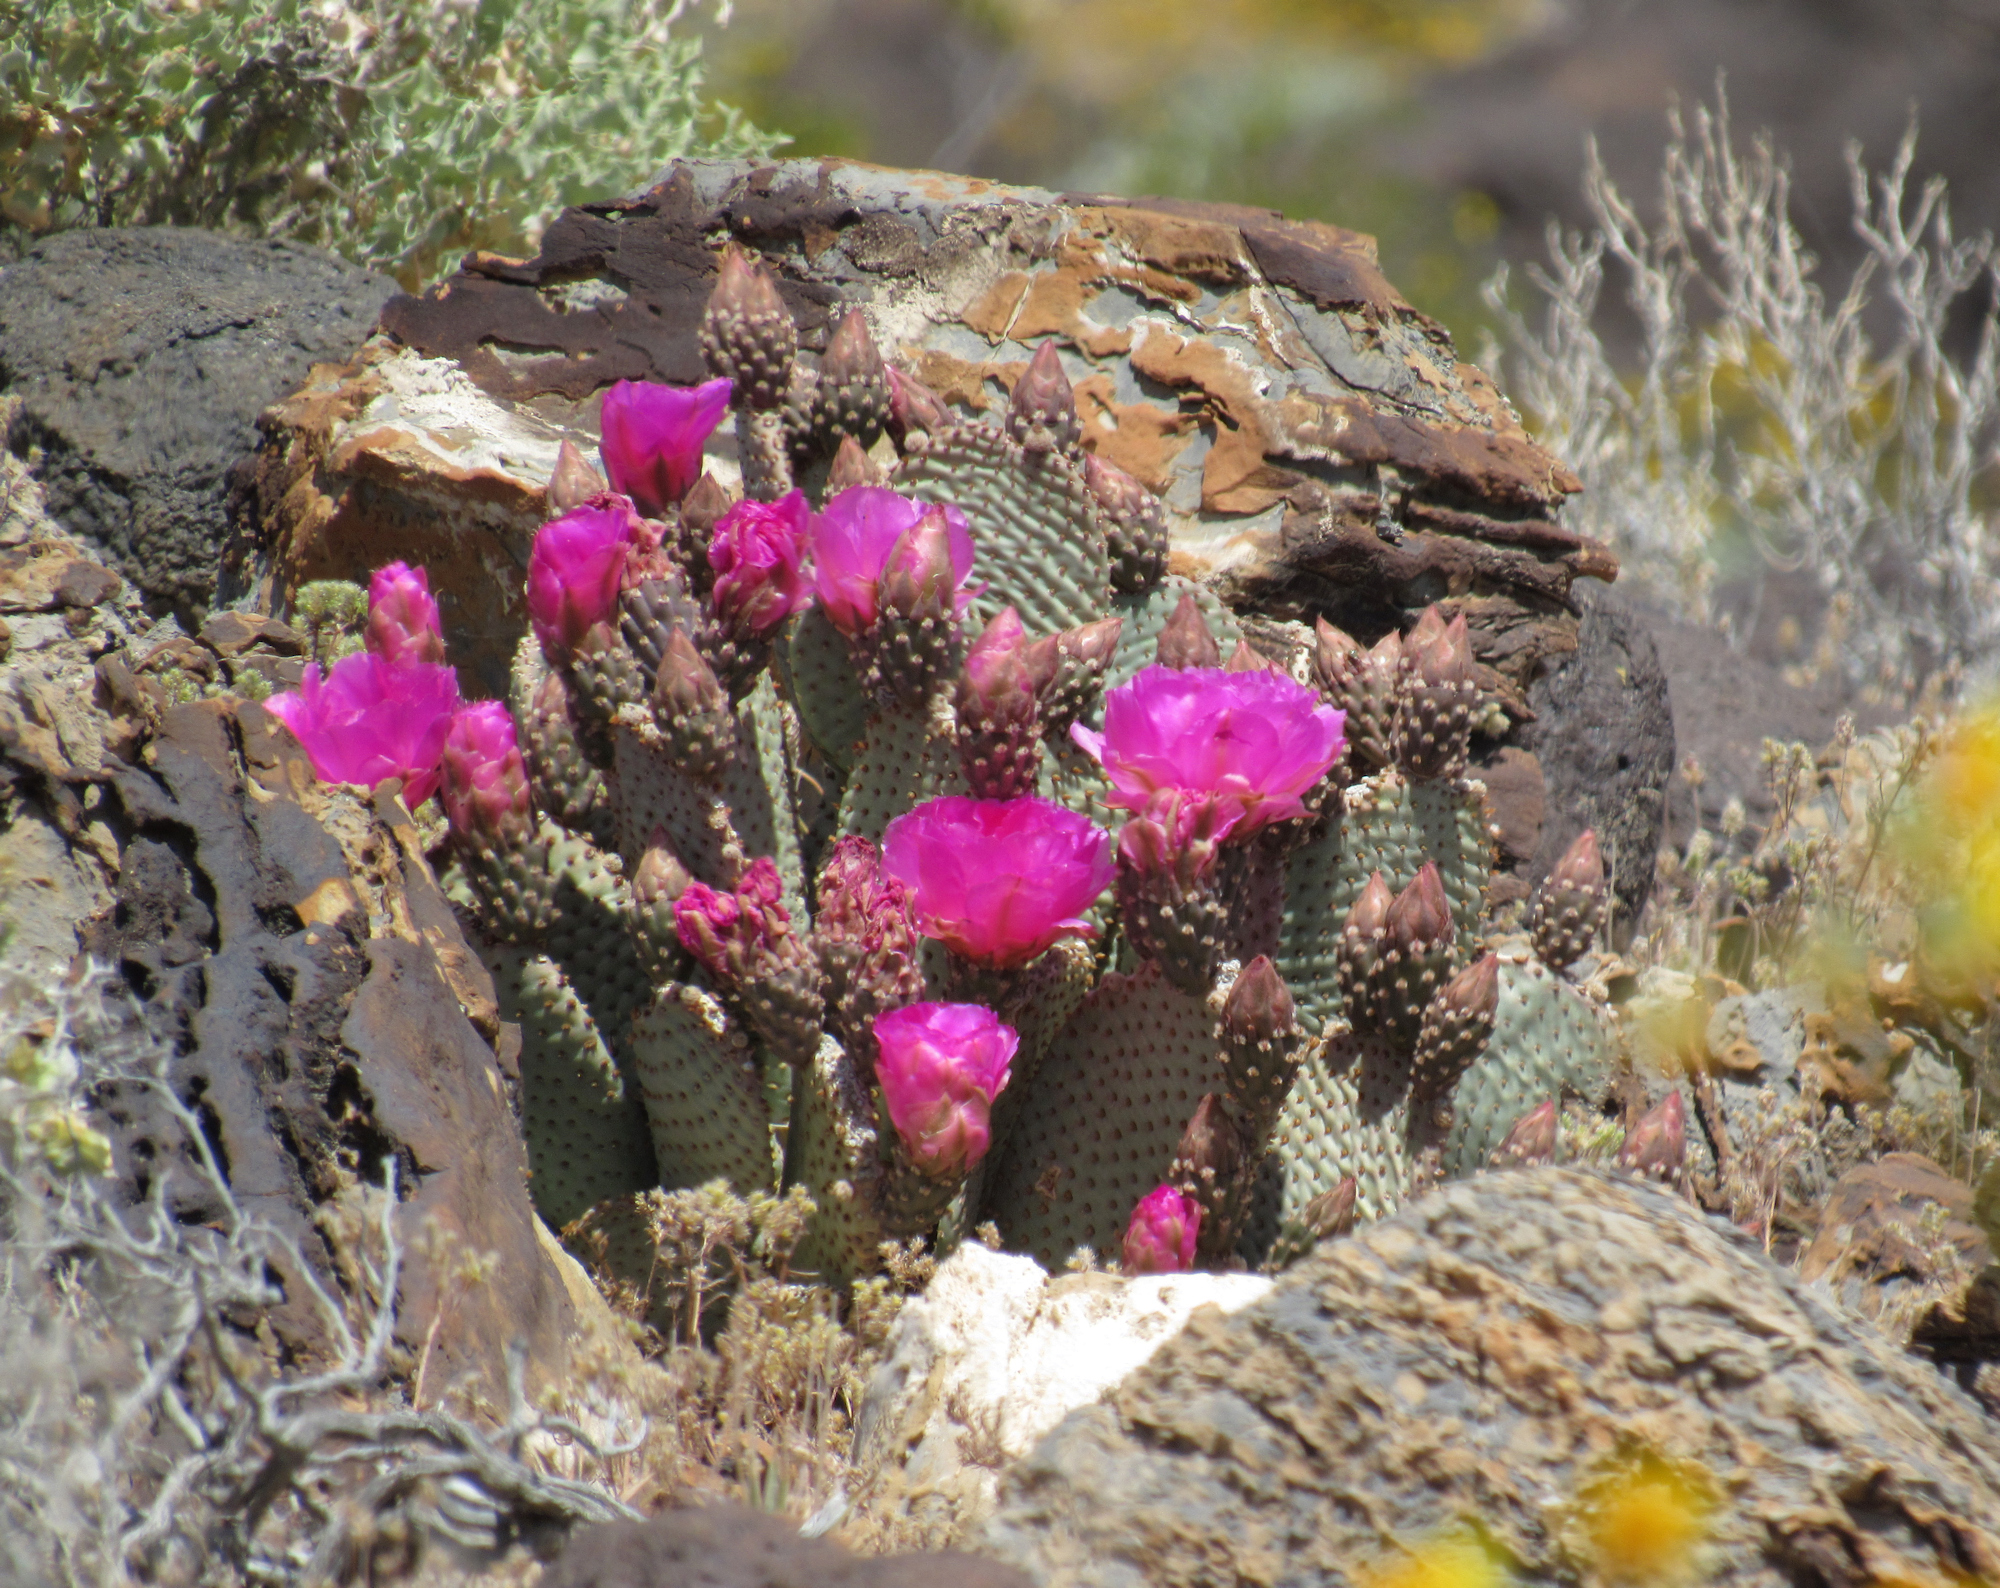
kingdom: Plantae
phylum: Tracheophyta
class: Magnoliopsida
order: Caryophyllales
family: Cactaceae
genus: Opuntia
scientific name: Opuntia basilaris
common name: Beavertail prickly-pear
